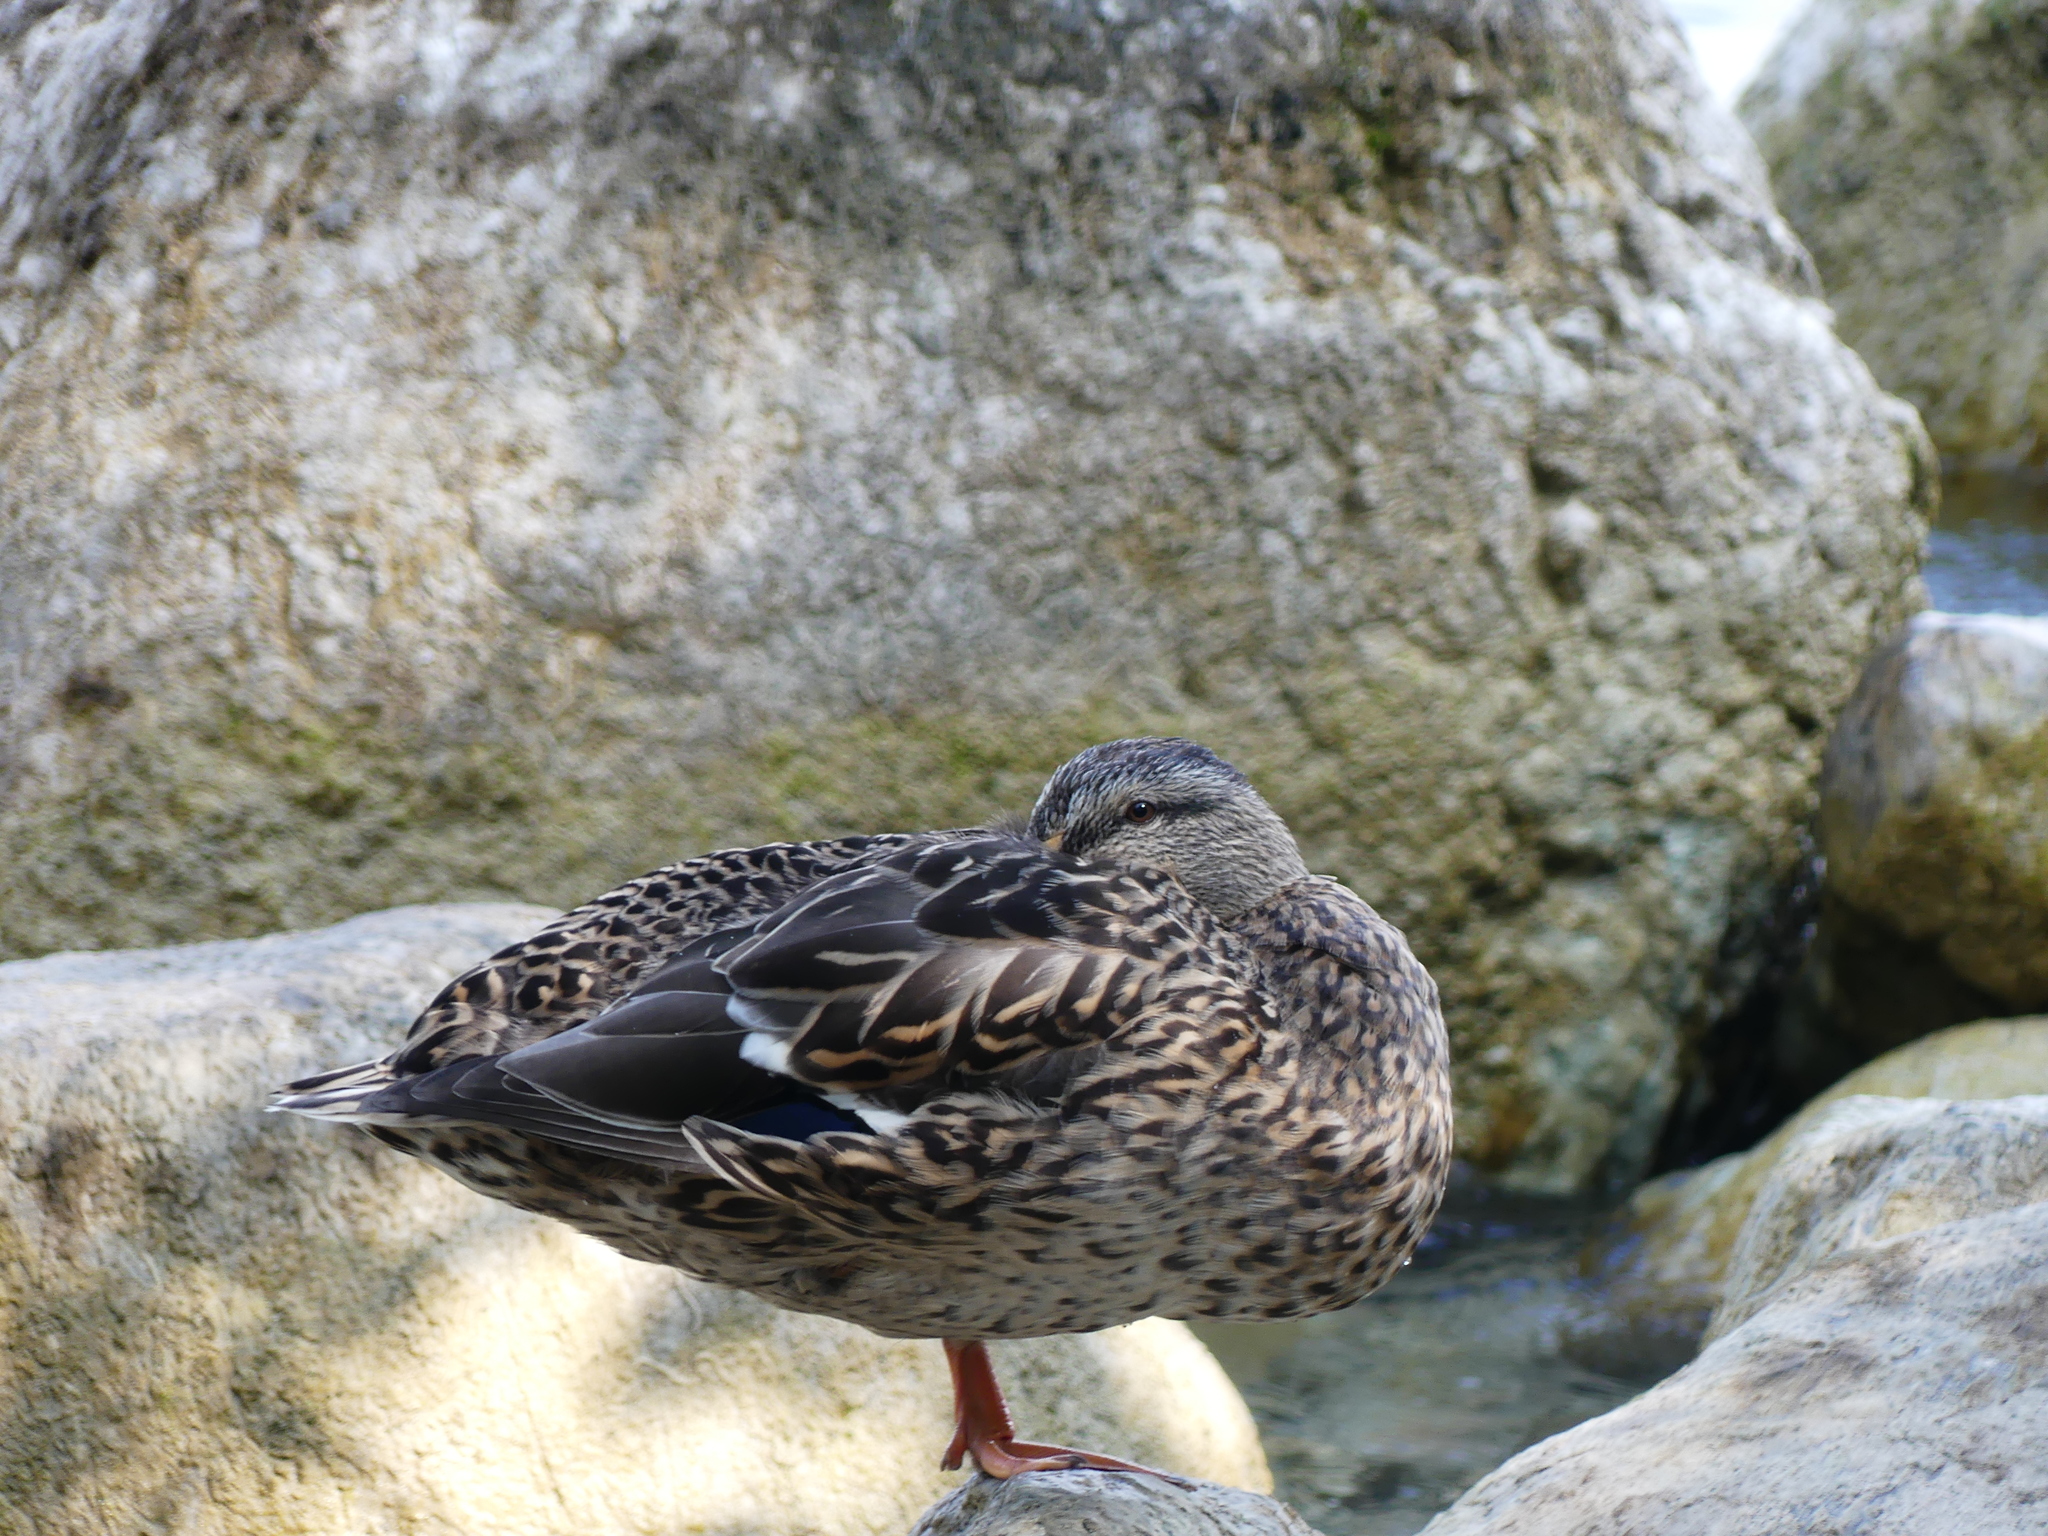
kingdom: Animalia
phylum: Chordata
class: Aves
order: Anseriformes
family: Anatidae
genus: Anas
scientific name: Anas platyrhynchos
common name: Mallard
